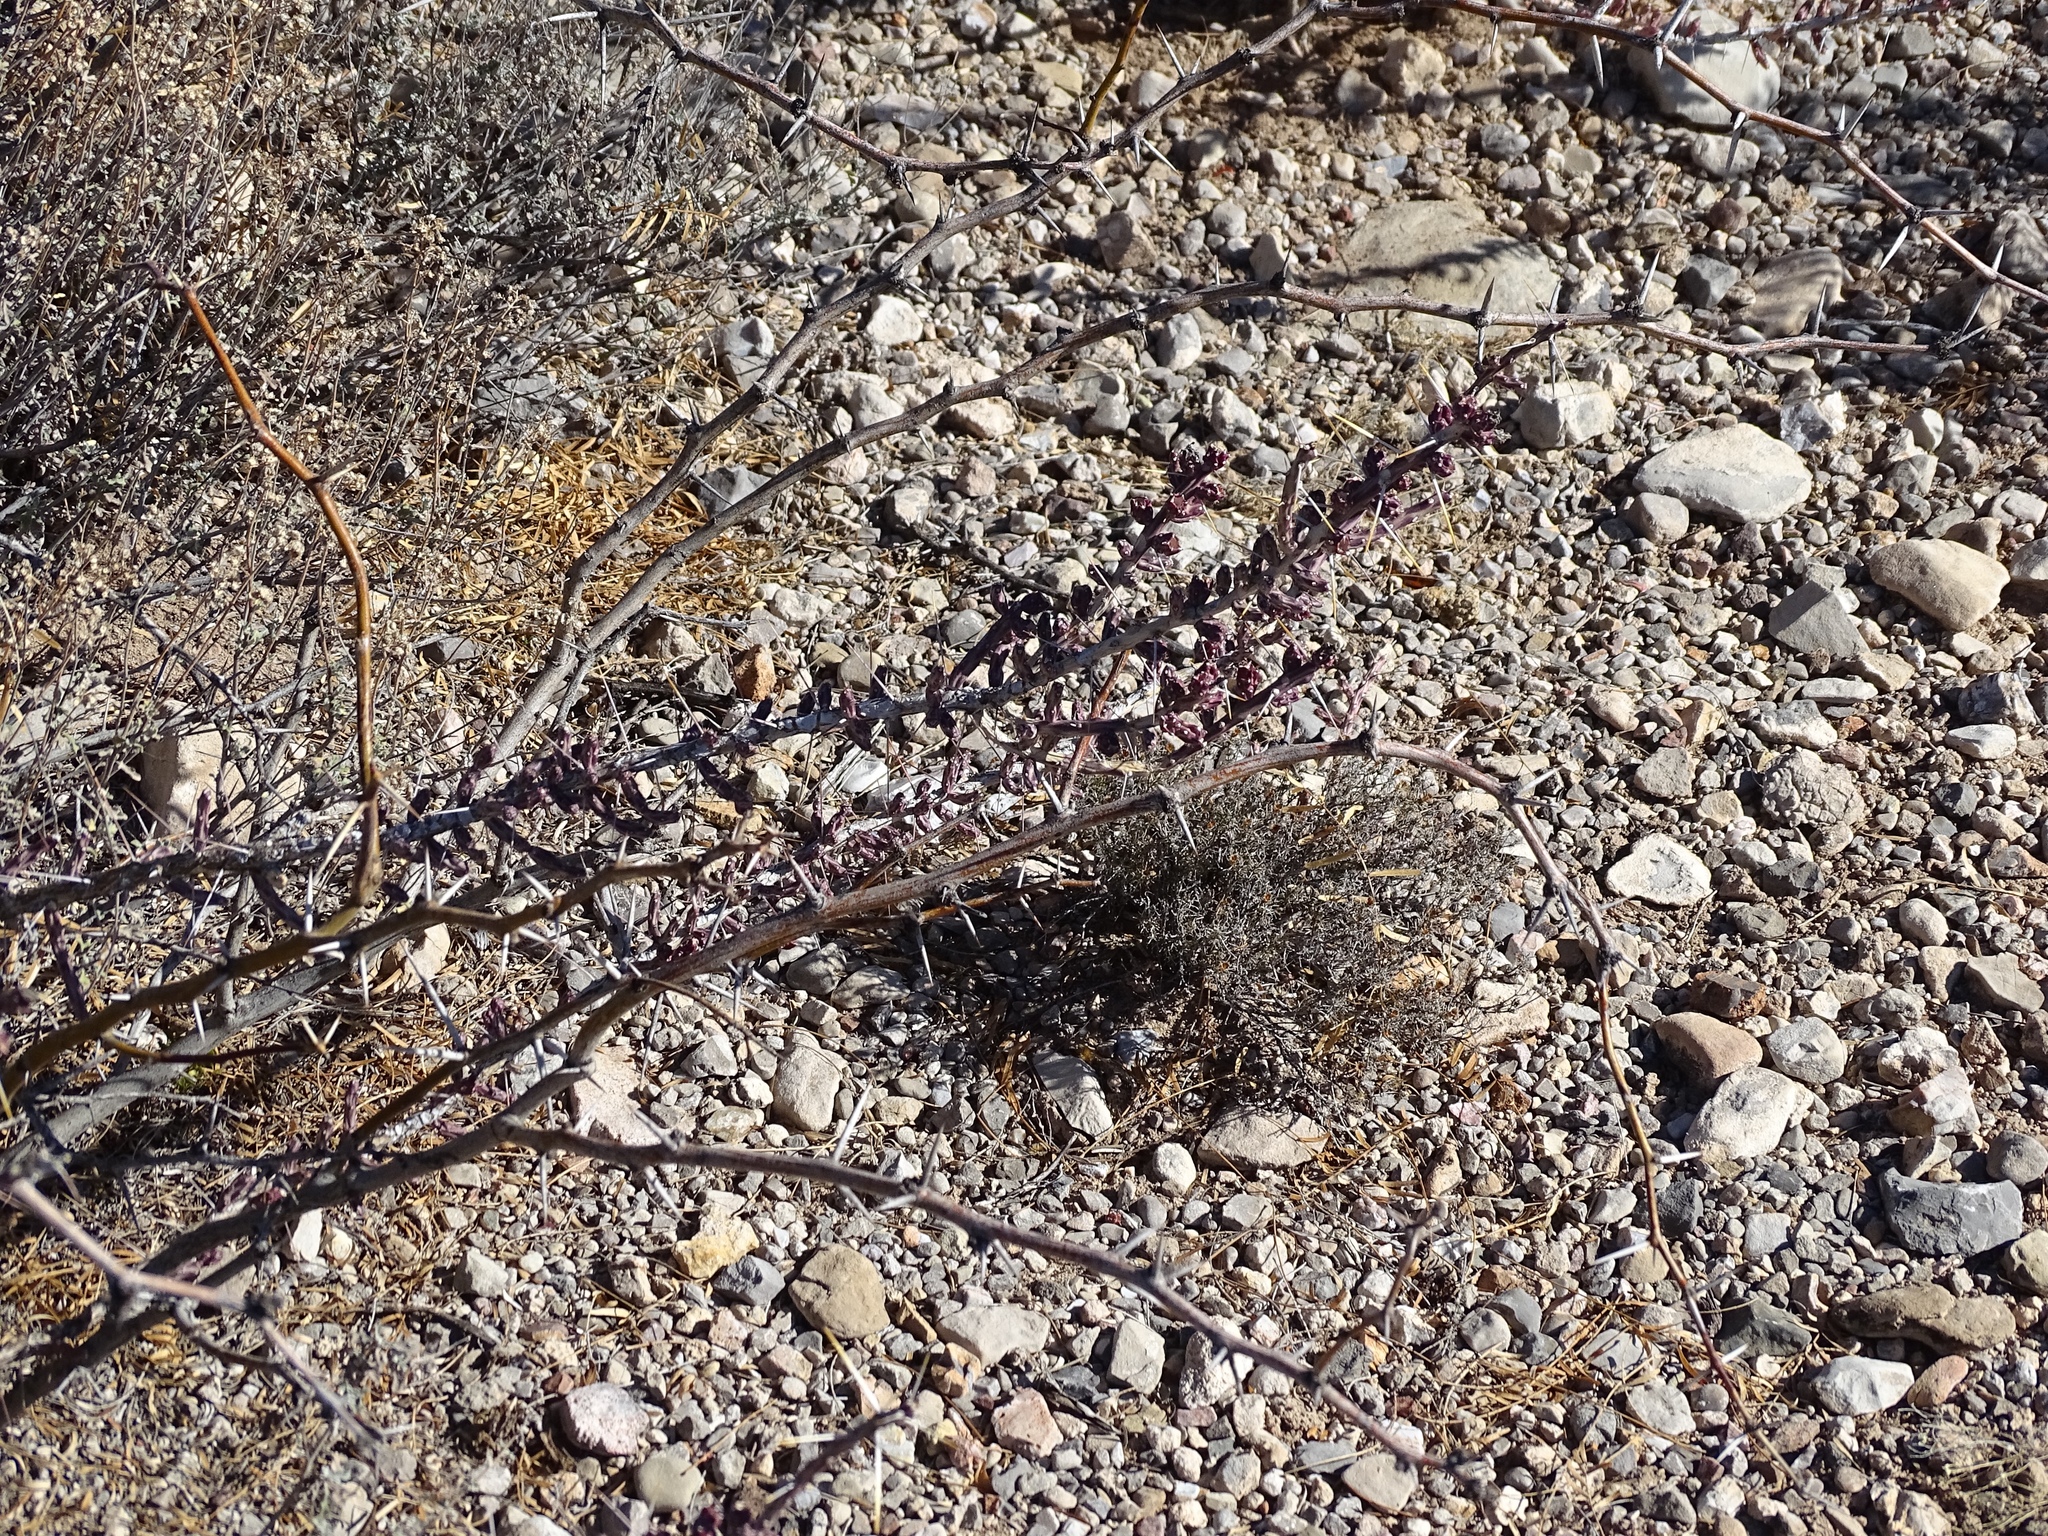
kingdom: Plantae
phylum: Tracheophyta
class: Magnoliopsida
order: Caryophyllales
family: Cactaceae
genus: Cylindropuntia
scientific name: Cylindropuntia leptocaulis
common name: Christmas cactus
